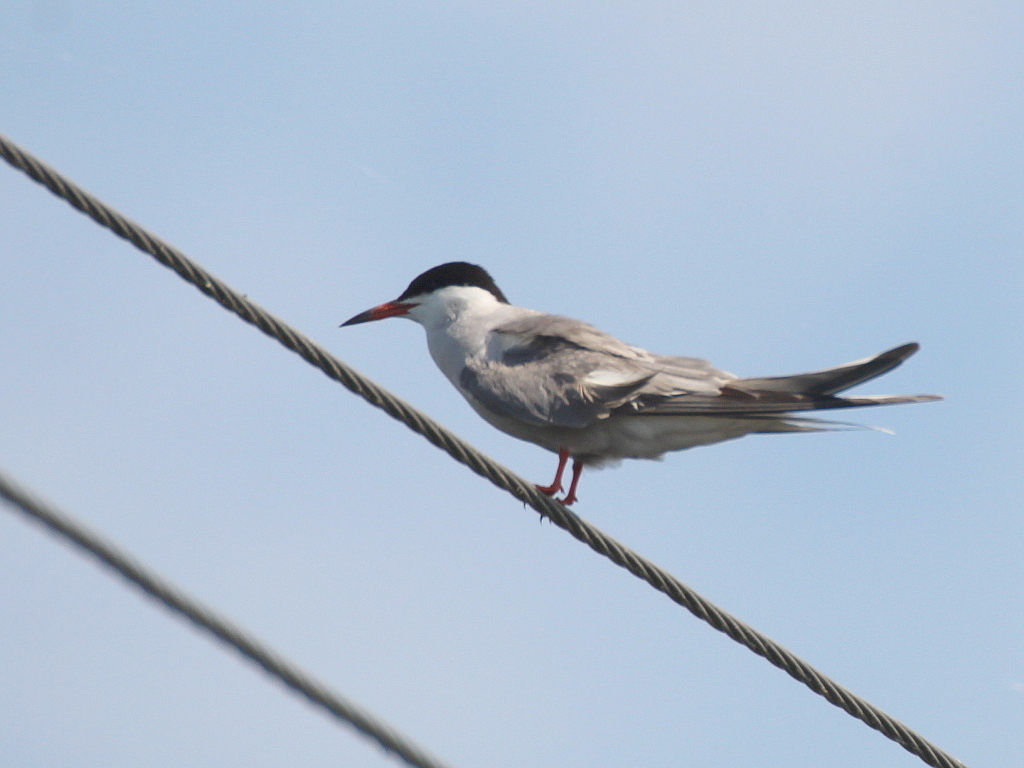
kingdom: Animalia
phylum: Chordata
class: Aves
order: Charadriiformes
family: Laridae
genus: Sterna
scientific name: Sterna hirundo
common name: Common tern
